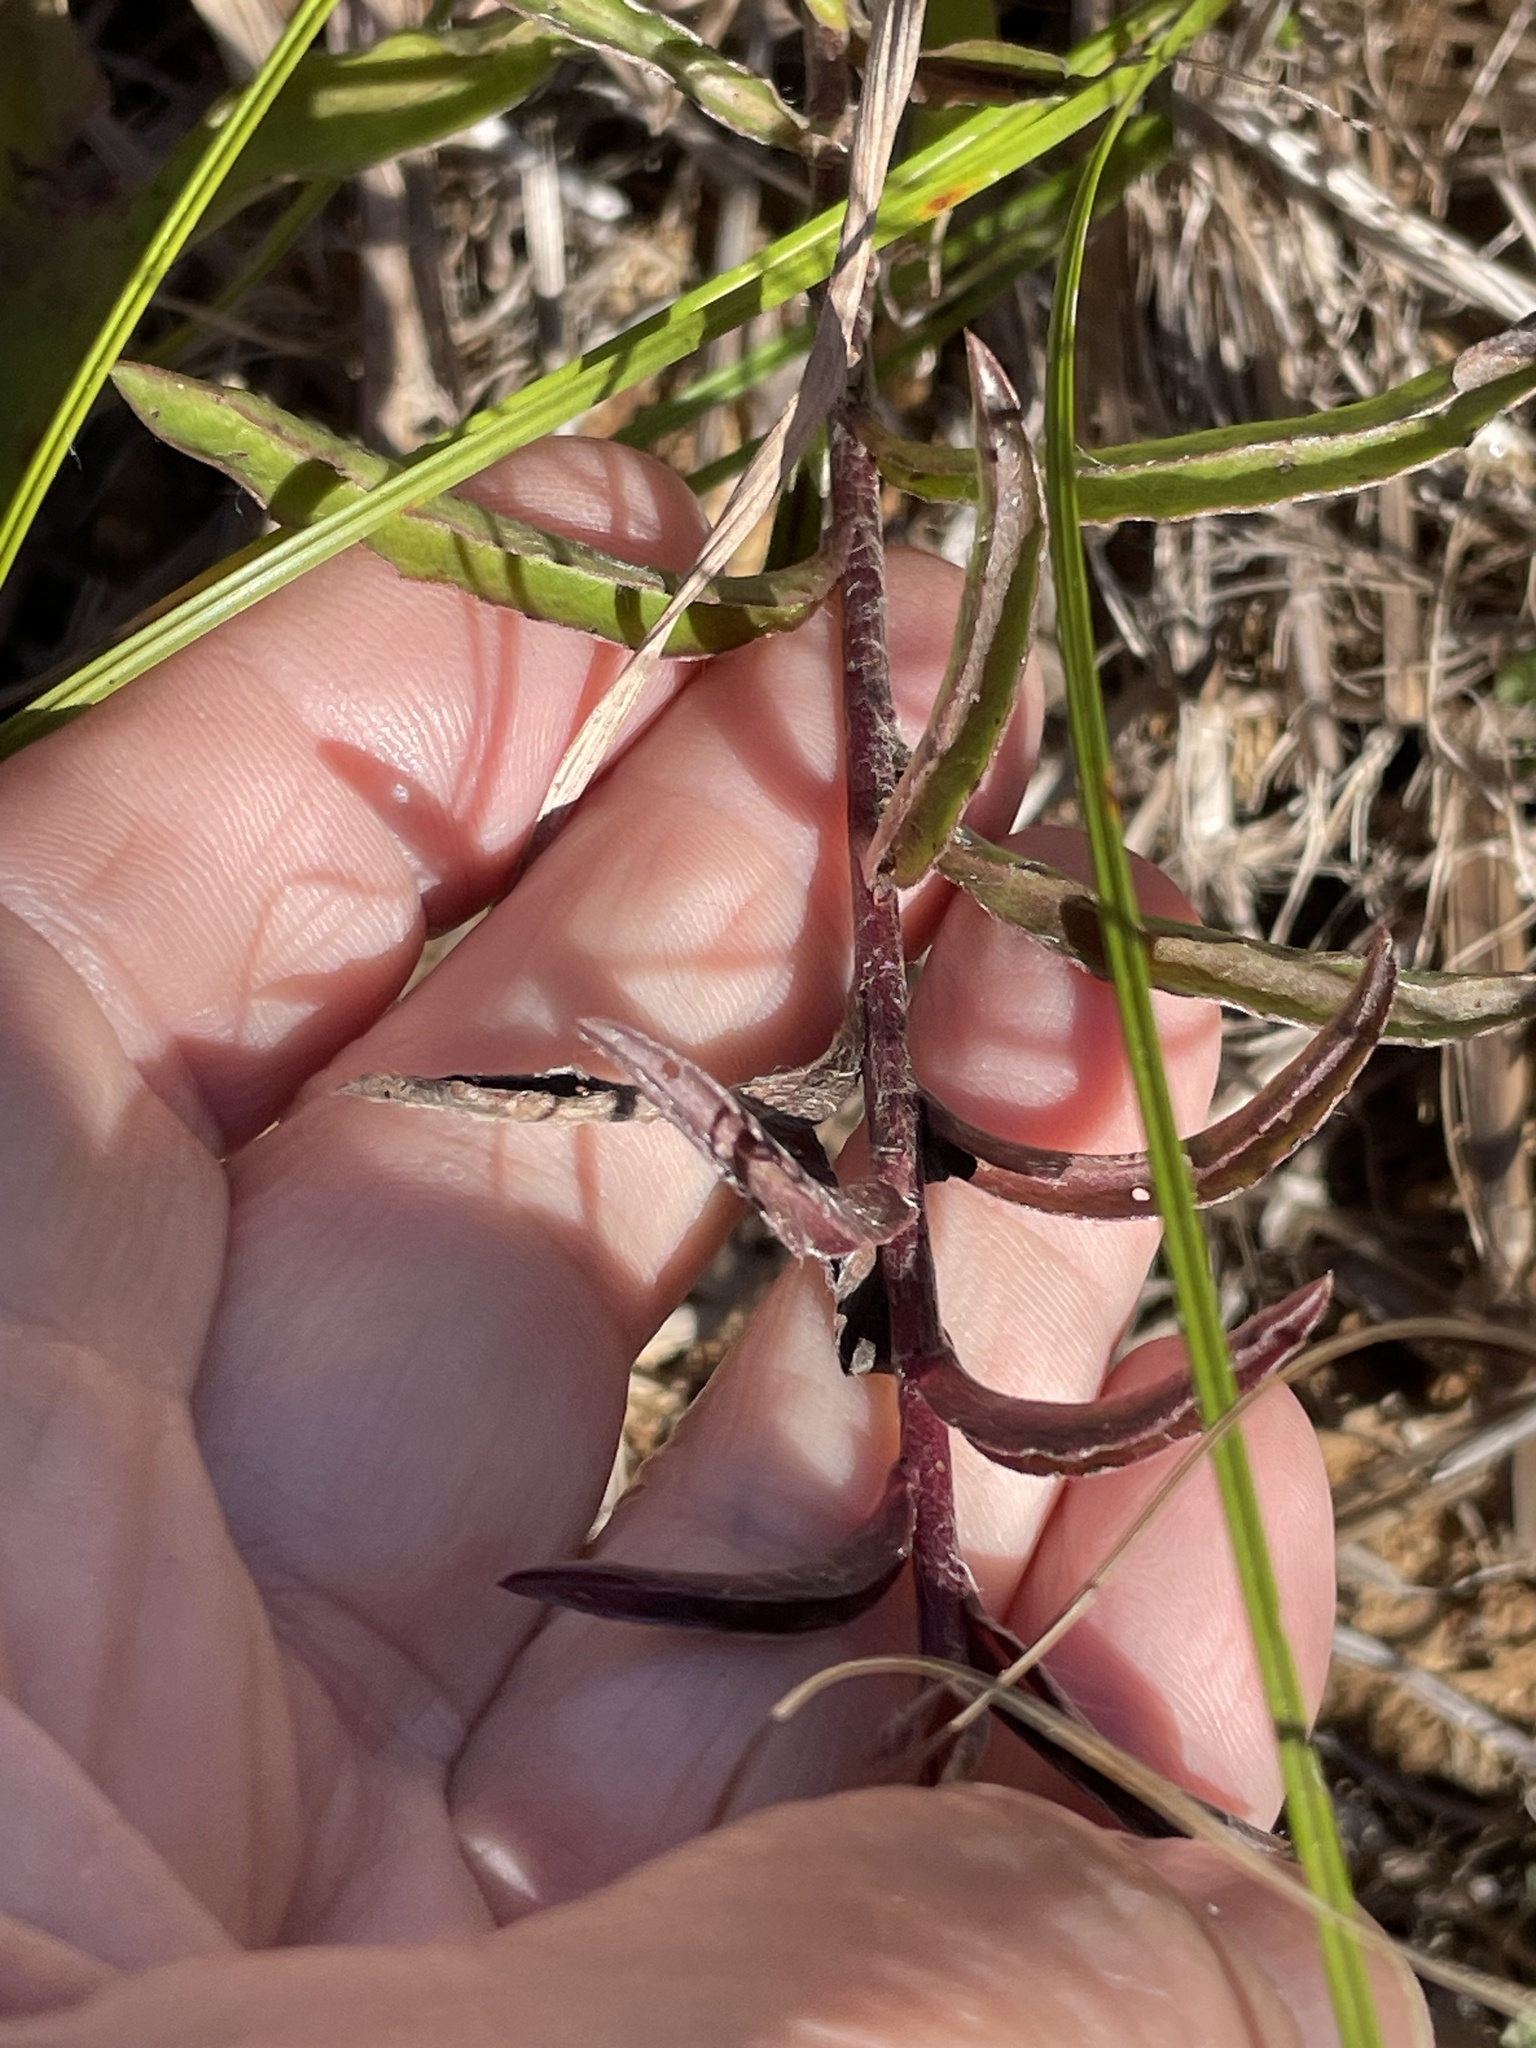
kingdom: Plantae
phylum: Tracheophyta
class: Magnoliopsida
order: Asterales
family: Asteraceae
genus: Chrysopsis
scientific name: Chrysopsis mariana
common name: Maryland golden-aster
